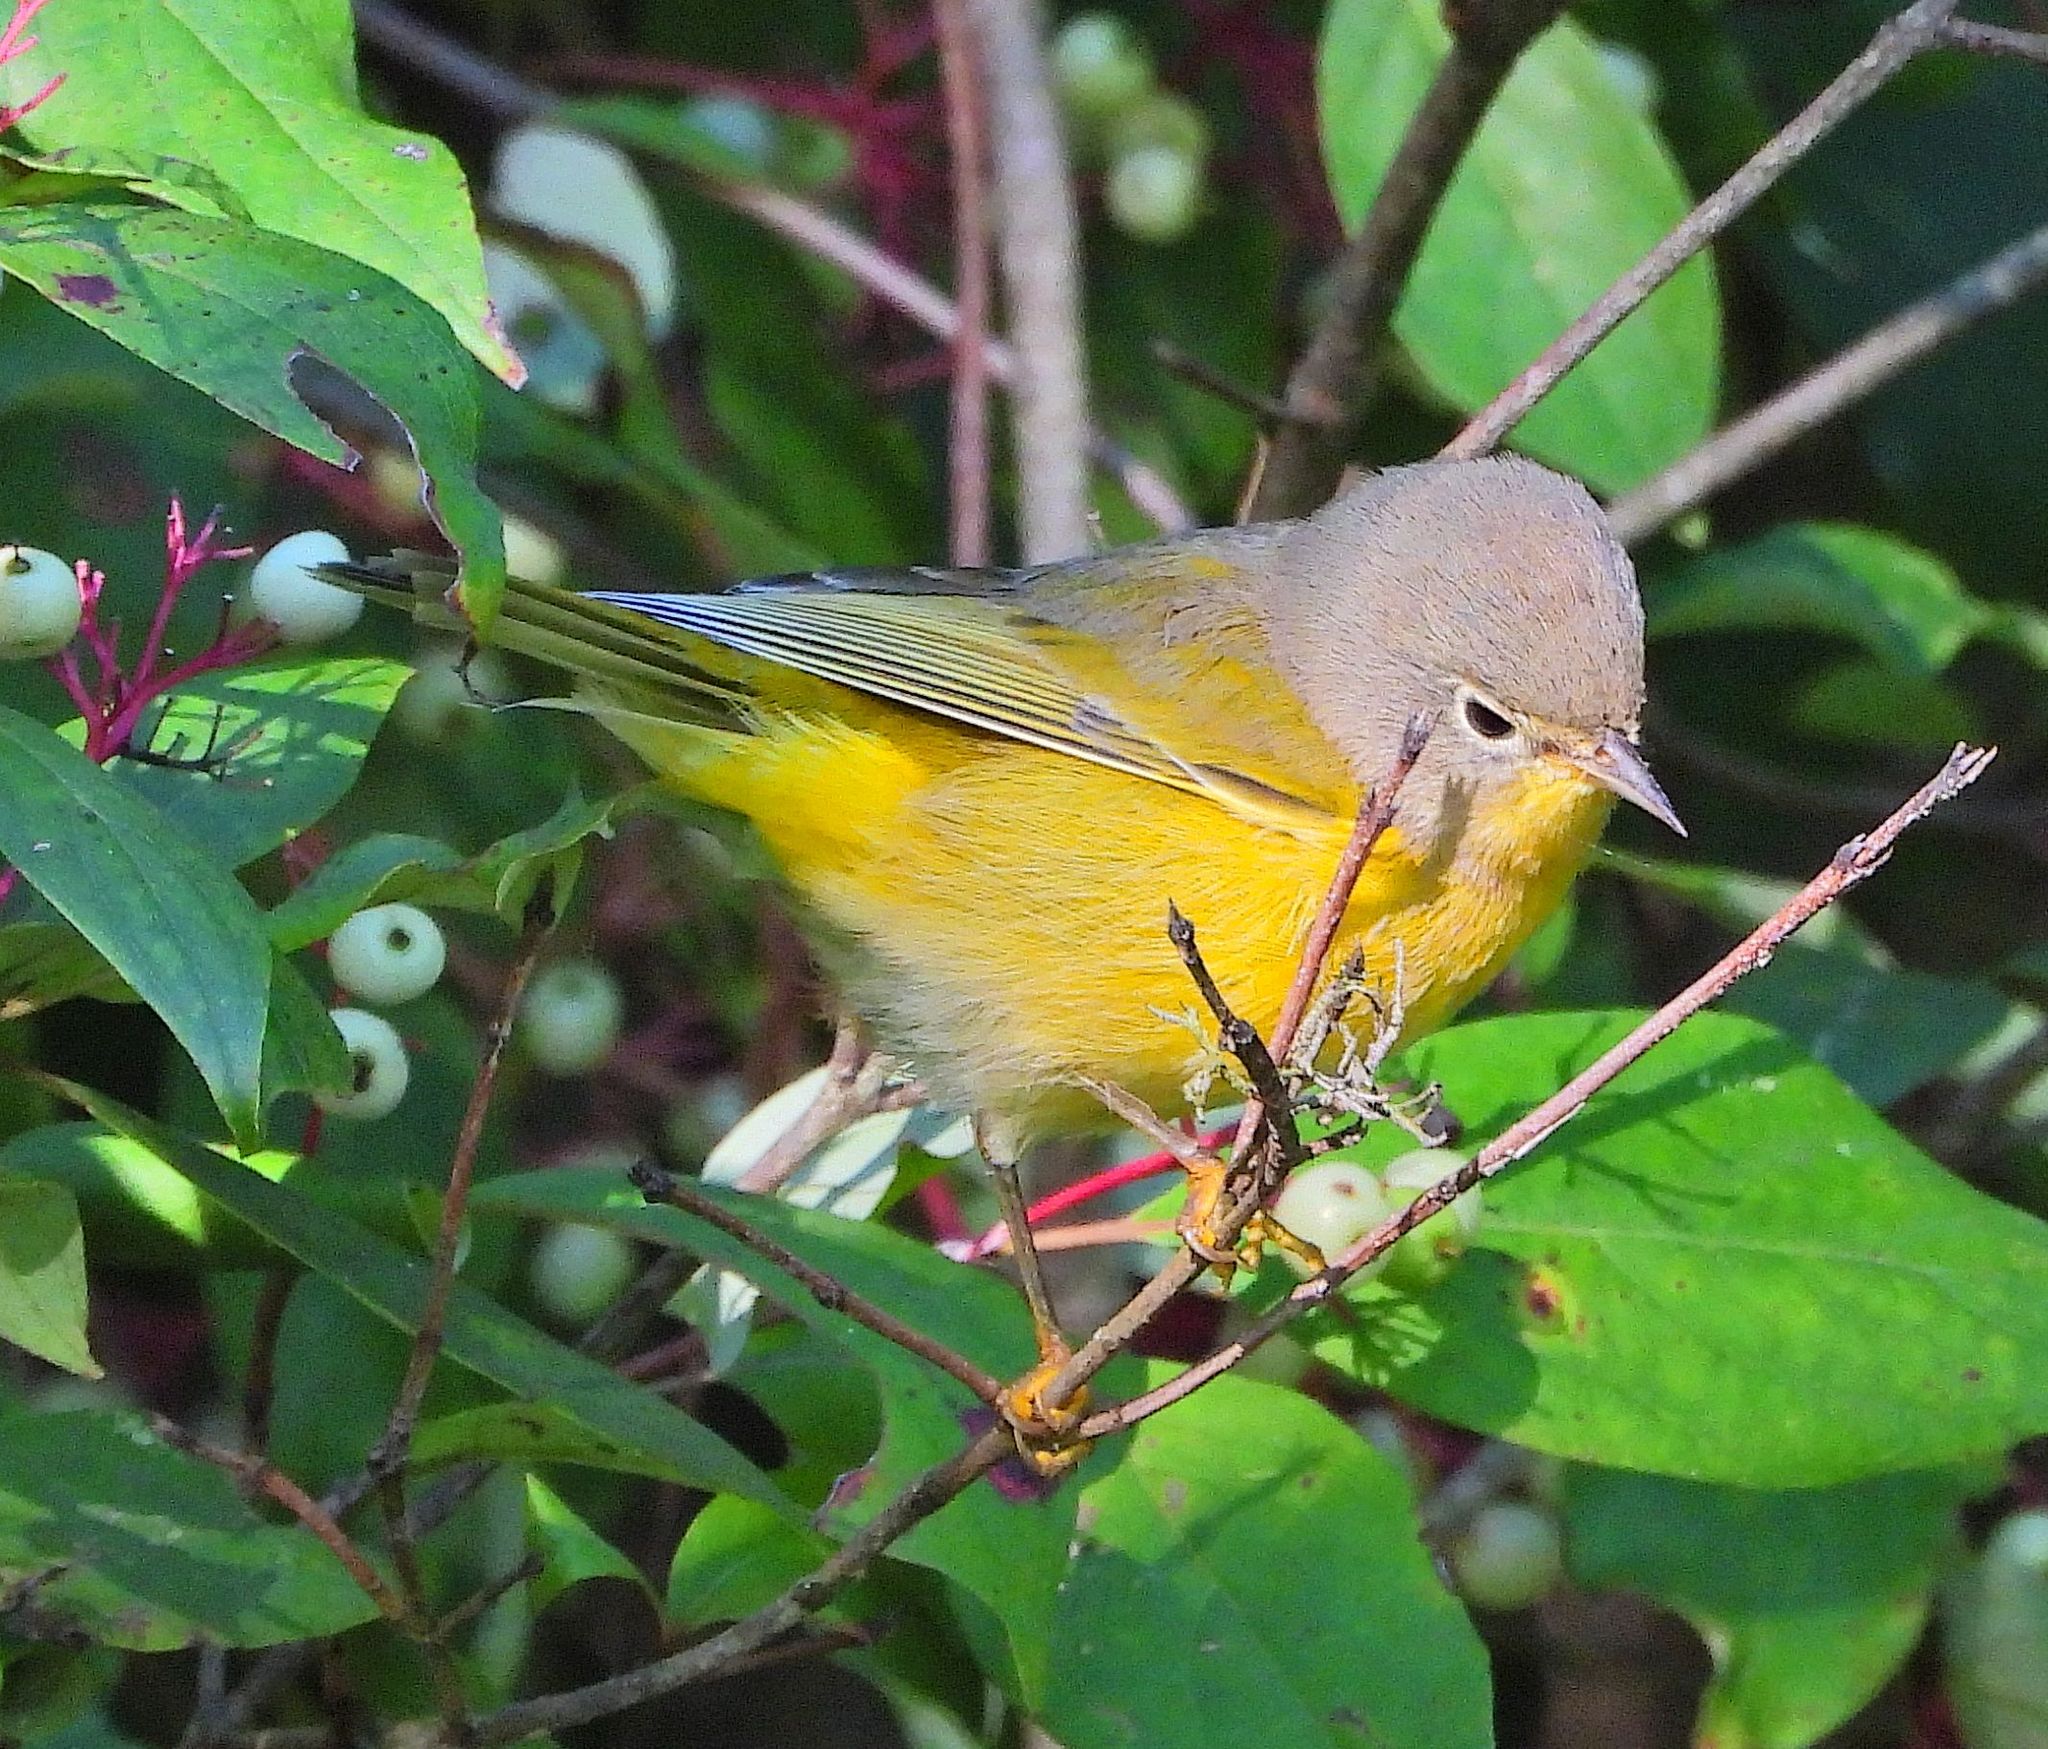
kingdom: Animalia
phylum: Chordata
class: Aves
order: Passeriformes
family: Parulidae
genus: Leiothlypis
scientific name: Leiothlypis ruficapilla
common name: Nashville warbler
